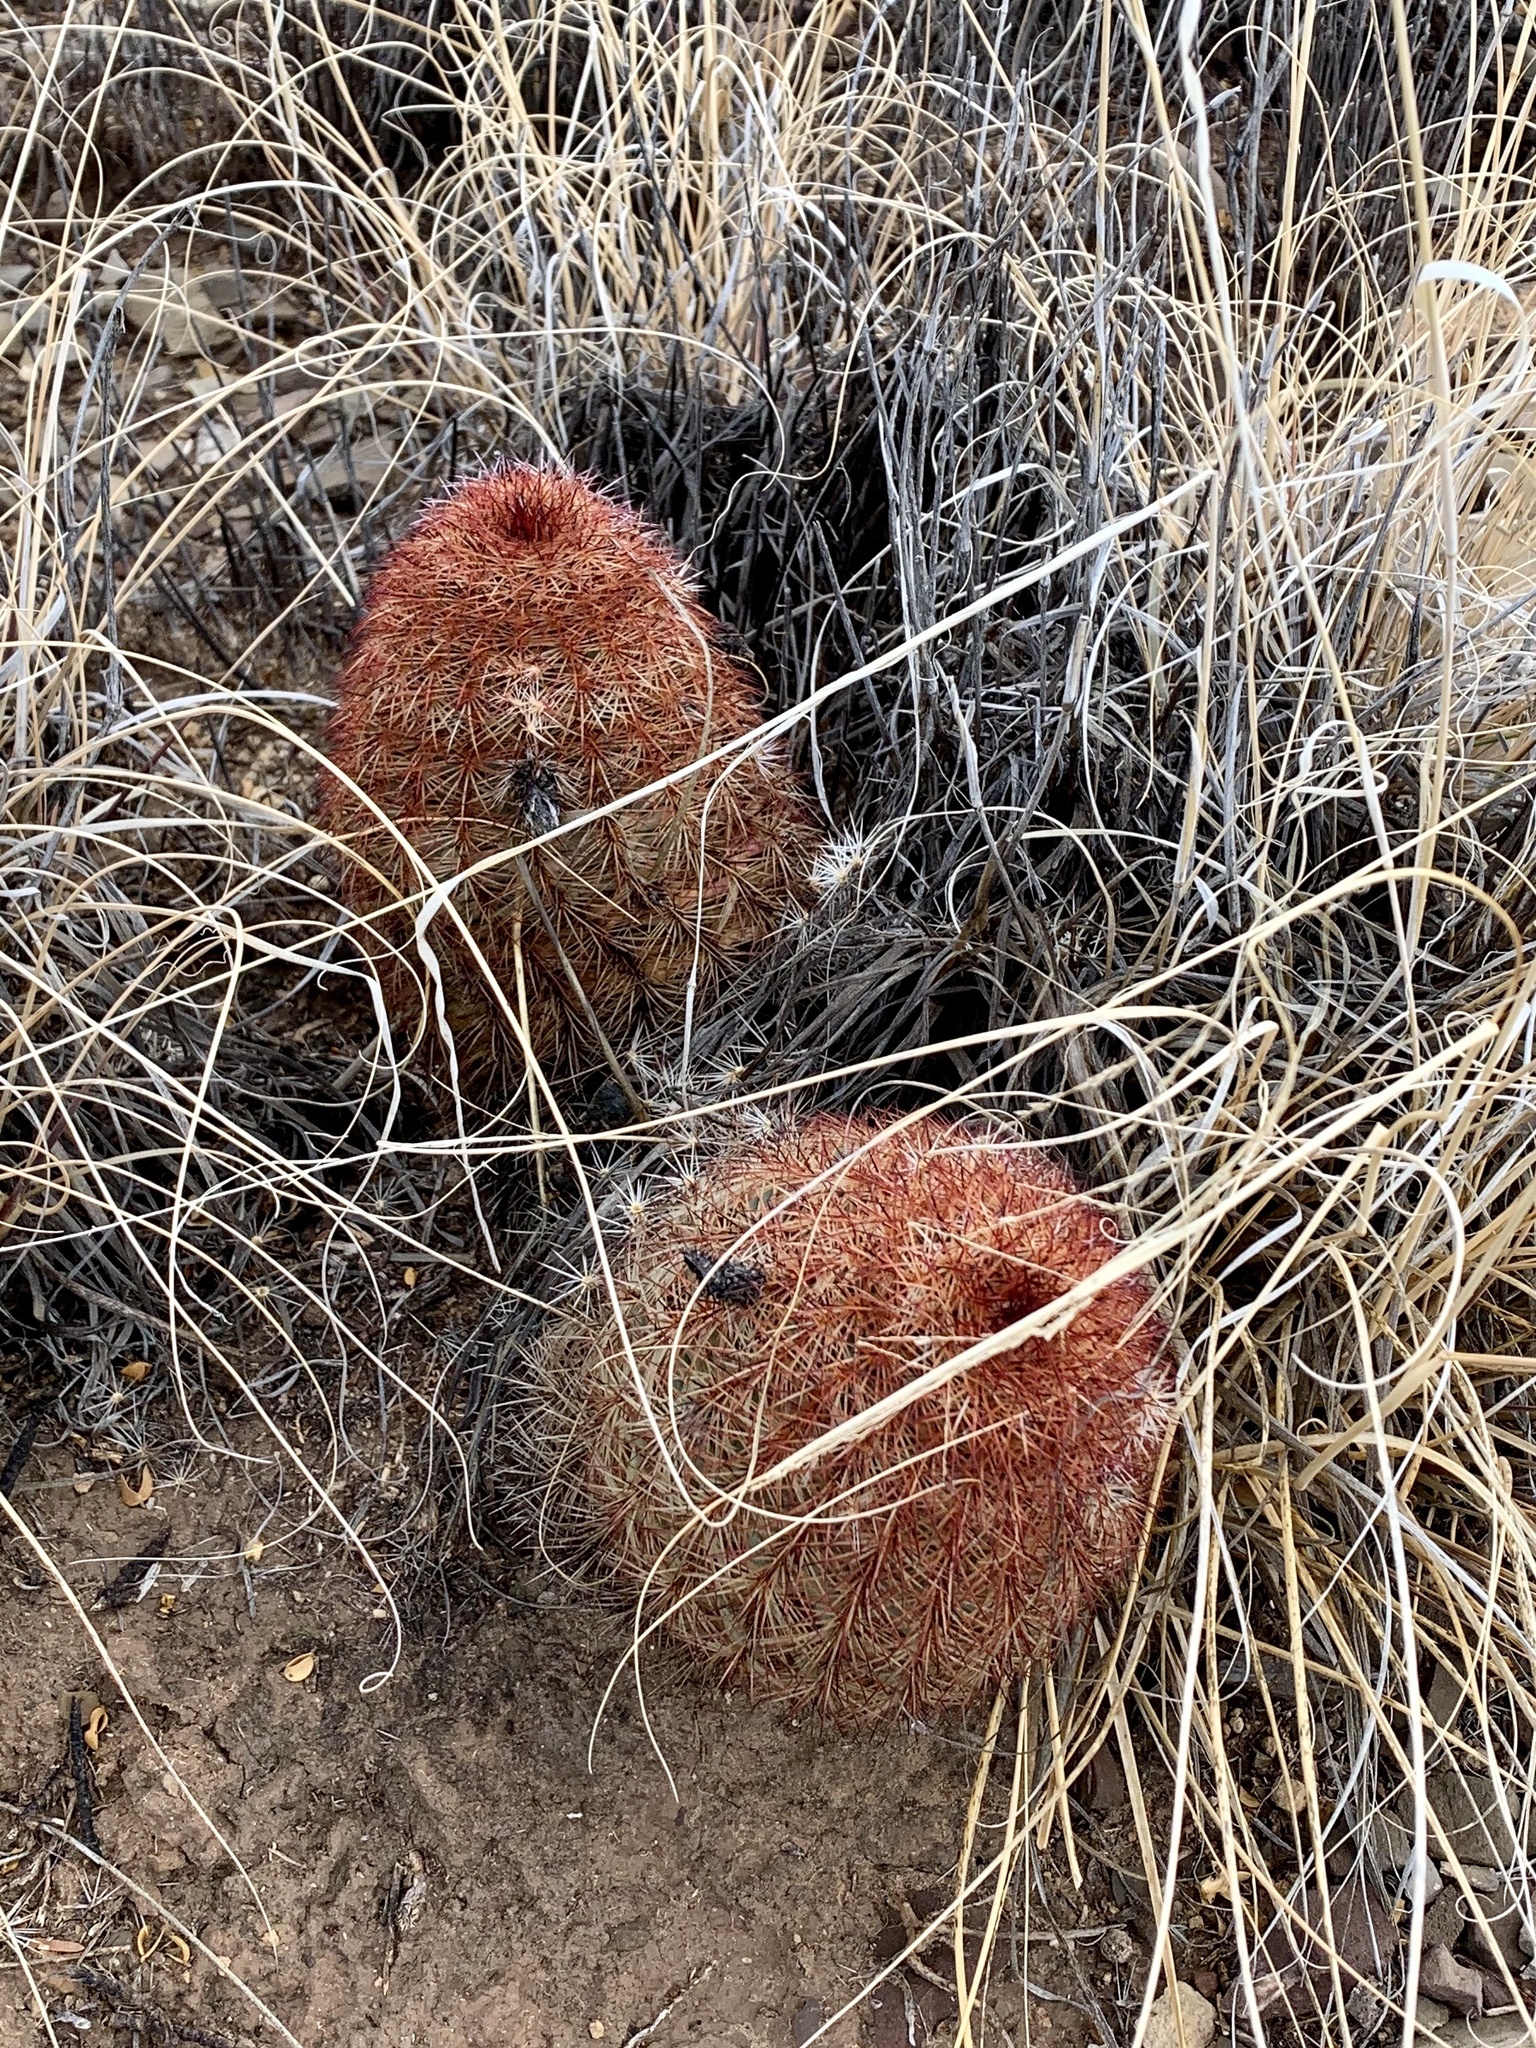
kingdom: Plantae
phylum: Tracheophyta
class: Magnoliopsida
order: Caryophyllales
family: Cactaceae
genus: Echinocereus
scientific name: Echinocereus dasyacanthus
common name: Spiny hedgehog cactus
